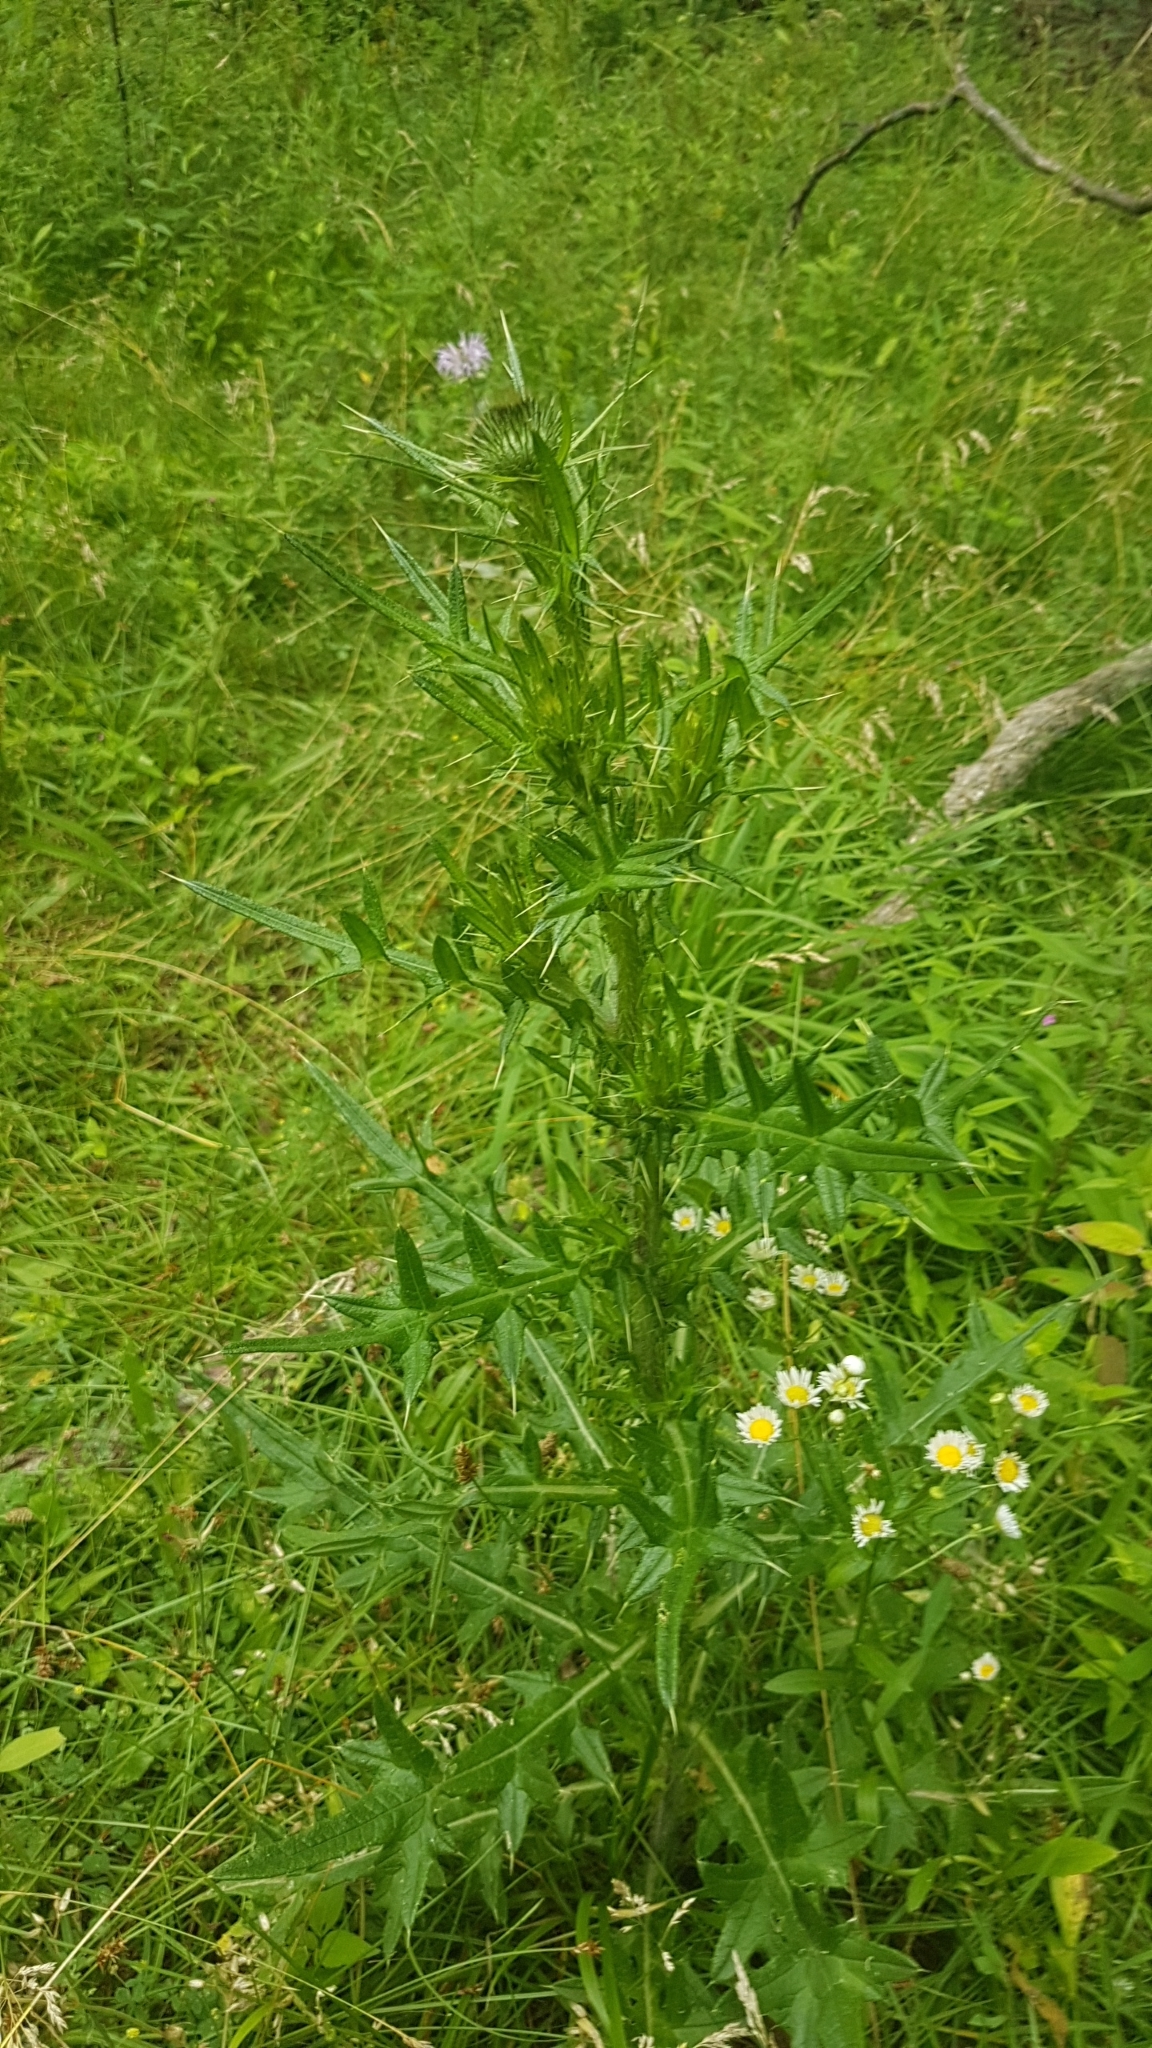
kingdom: Plantae
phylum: Tracheophyta
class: Magnoliopsida
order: Asterales
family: Asteraceae
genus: Cirsium
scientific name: Cirsium vulgare
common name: Bull thistle
